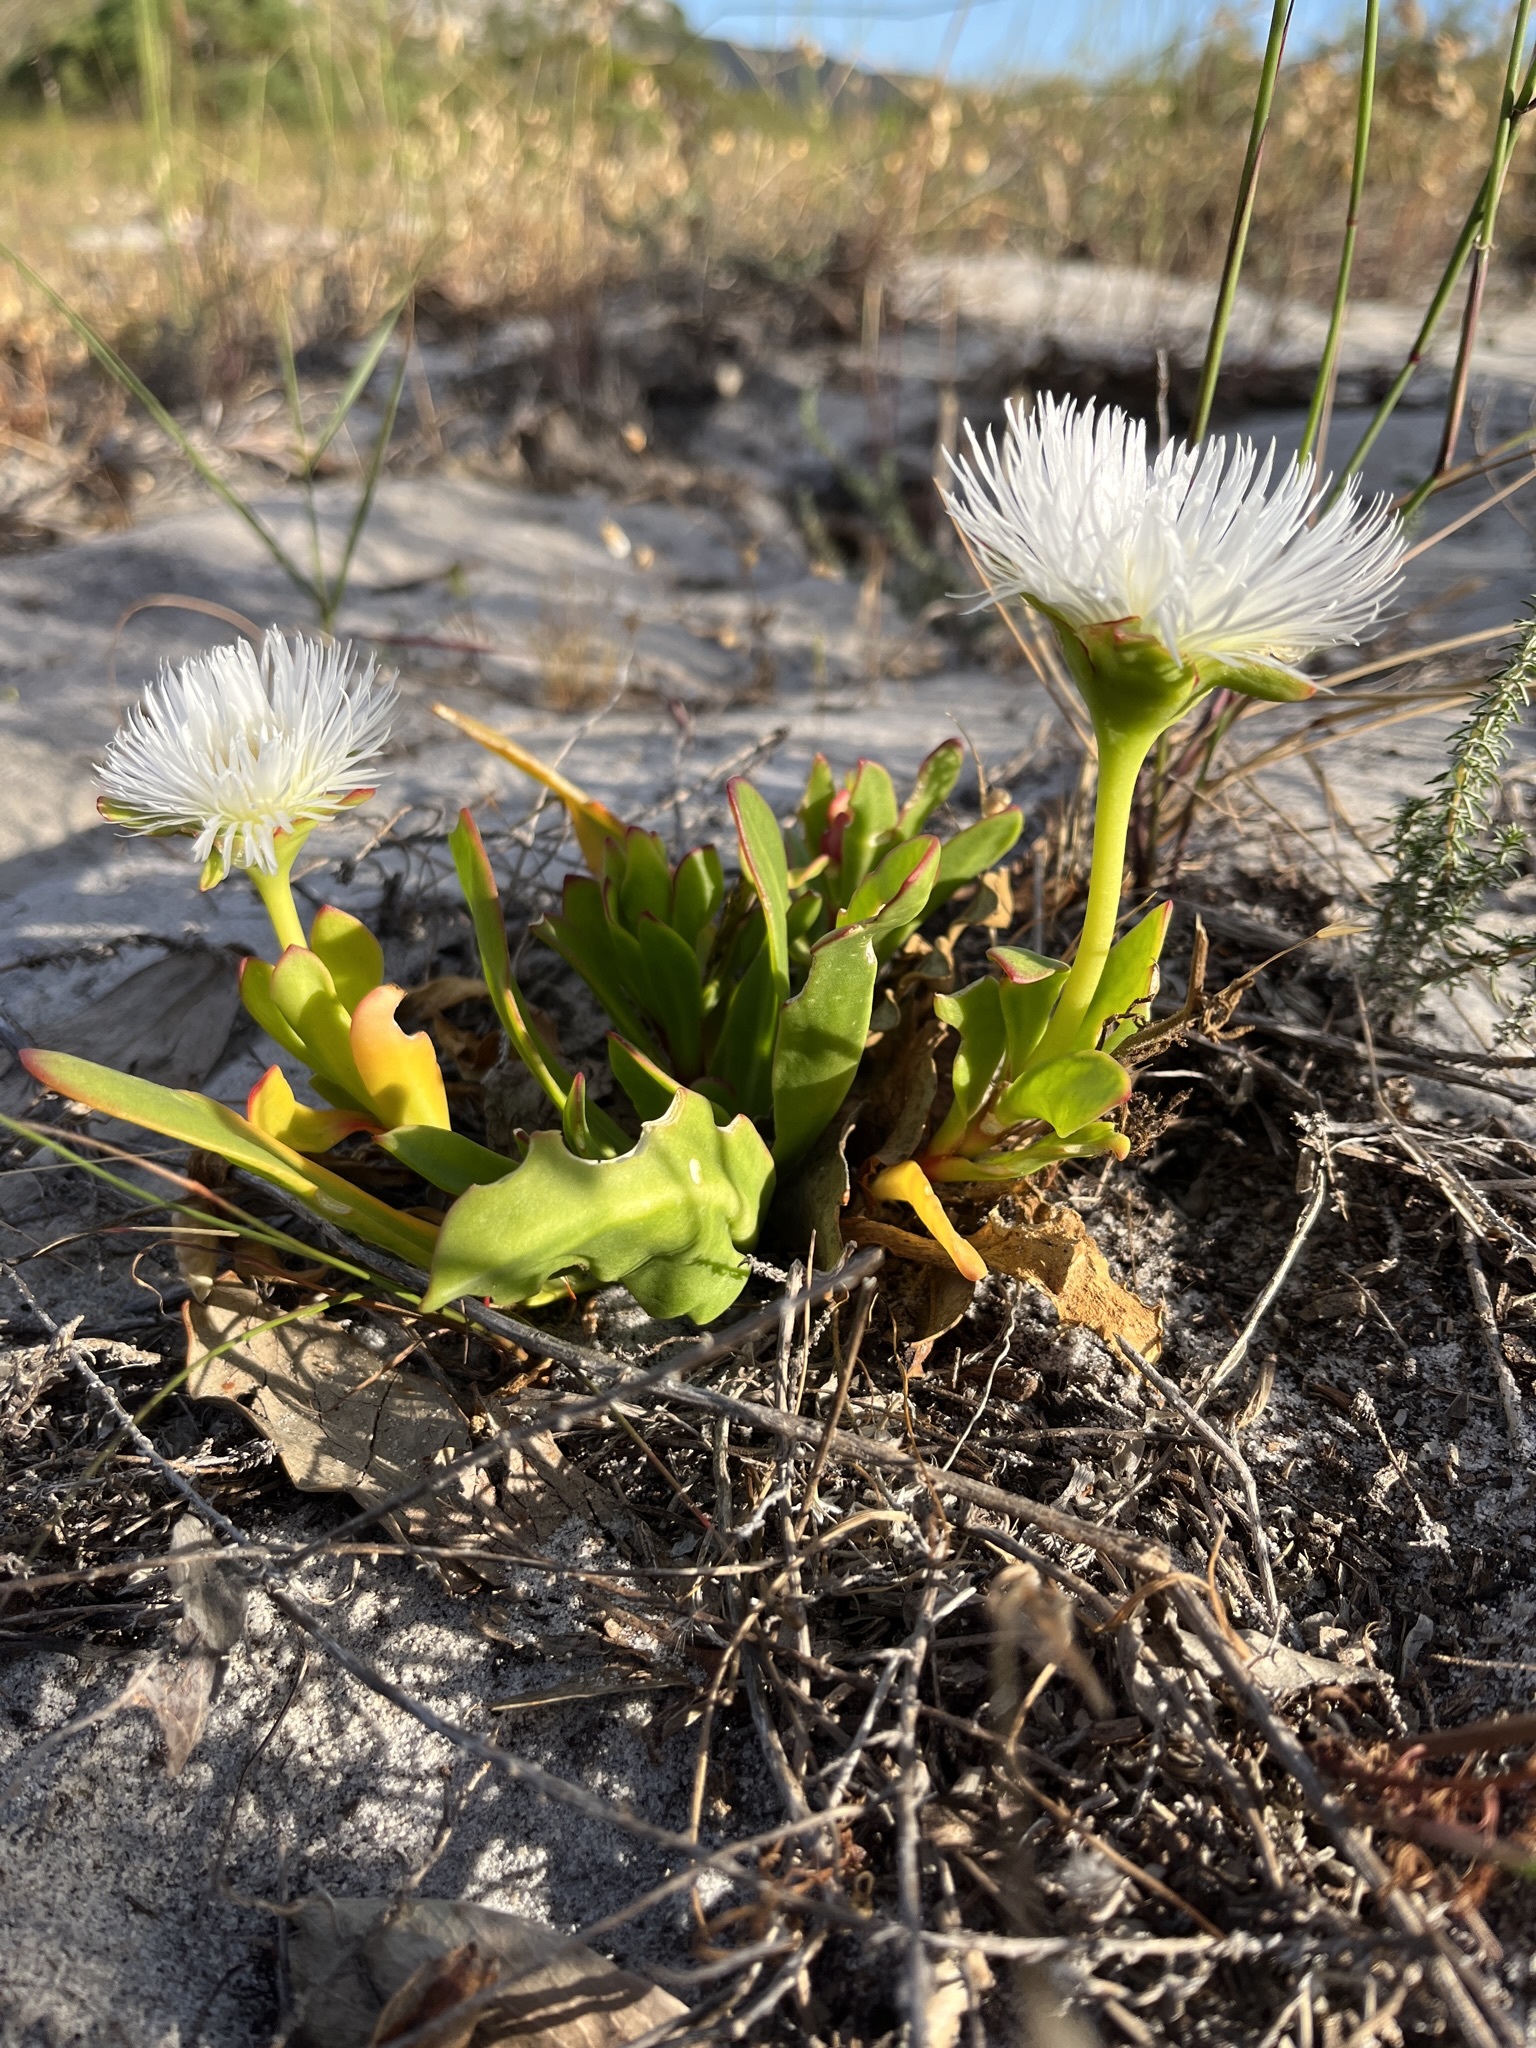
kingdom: Plantae
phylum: Tracheophyta
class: Magnoliopsida
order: Caryophyllales
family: Aizoaceae
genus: Skiatophytum
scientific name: Skiatophytum skiatophytoides
